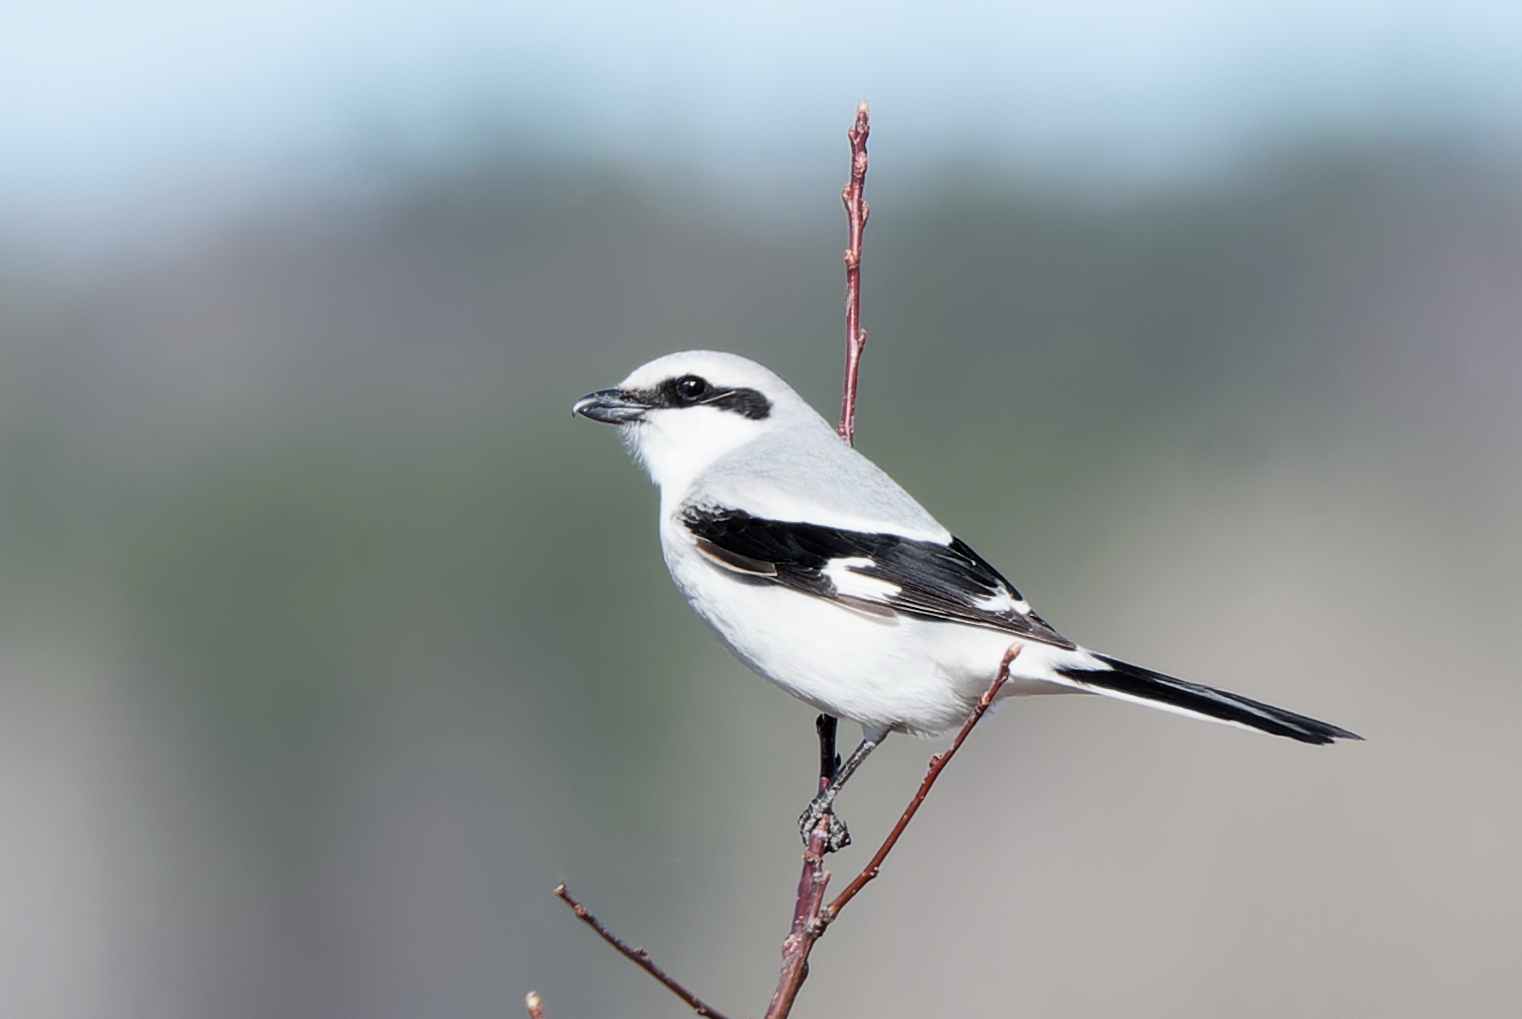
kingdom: Animalia
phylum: Chordata
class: Aves
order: Passeriformes
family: Laniidae
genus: Lanius
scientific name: Lanius excubitor
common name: Great grey shrike
